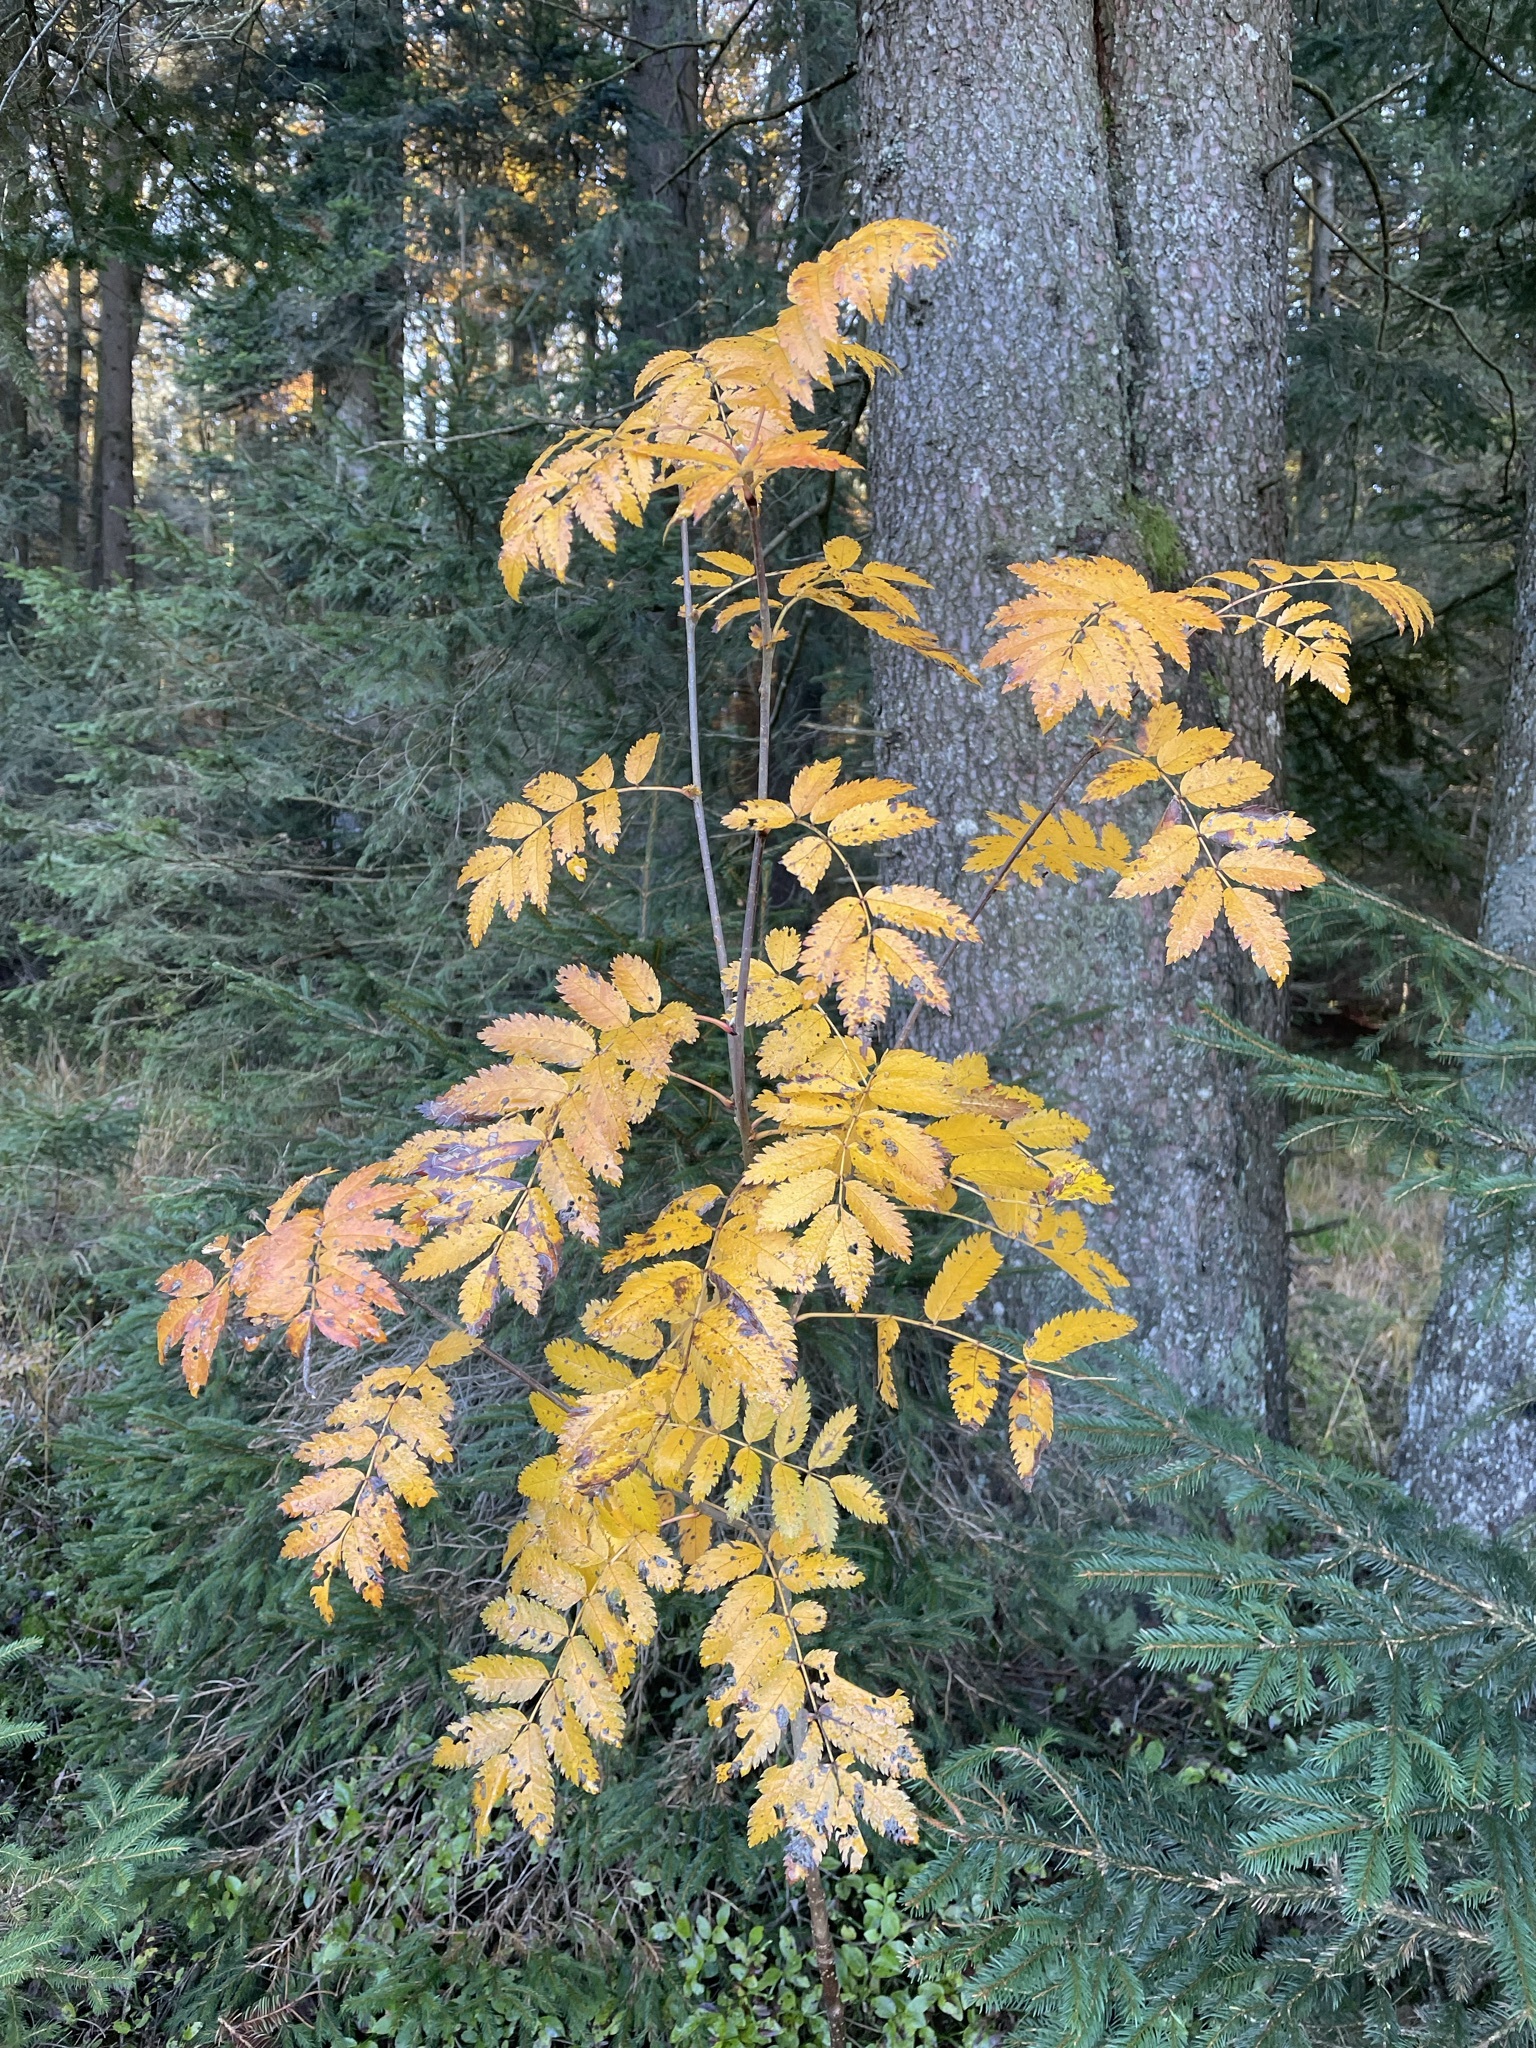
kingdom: Plantae
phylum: Tracheophyta
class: Magnoliopsida
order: Rosales
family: Rosaceae
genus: Sorbus
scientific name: Sorbus aucuparia
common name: Rowan
